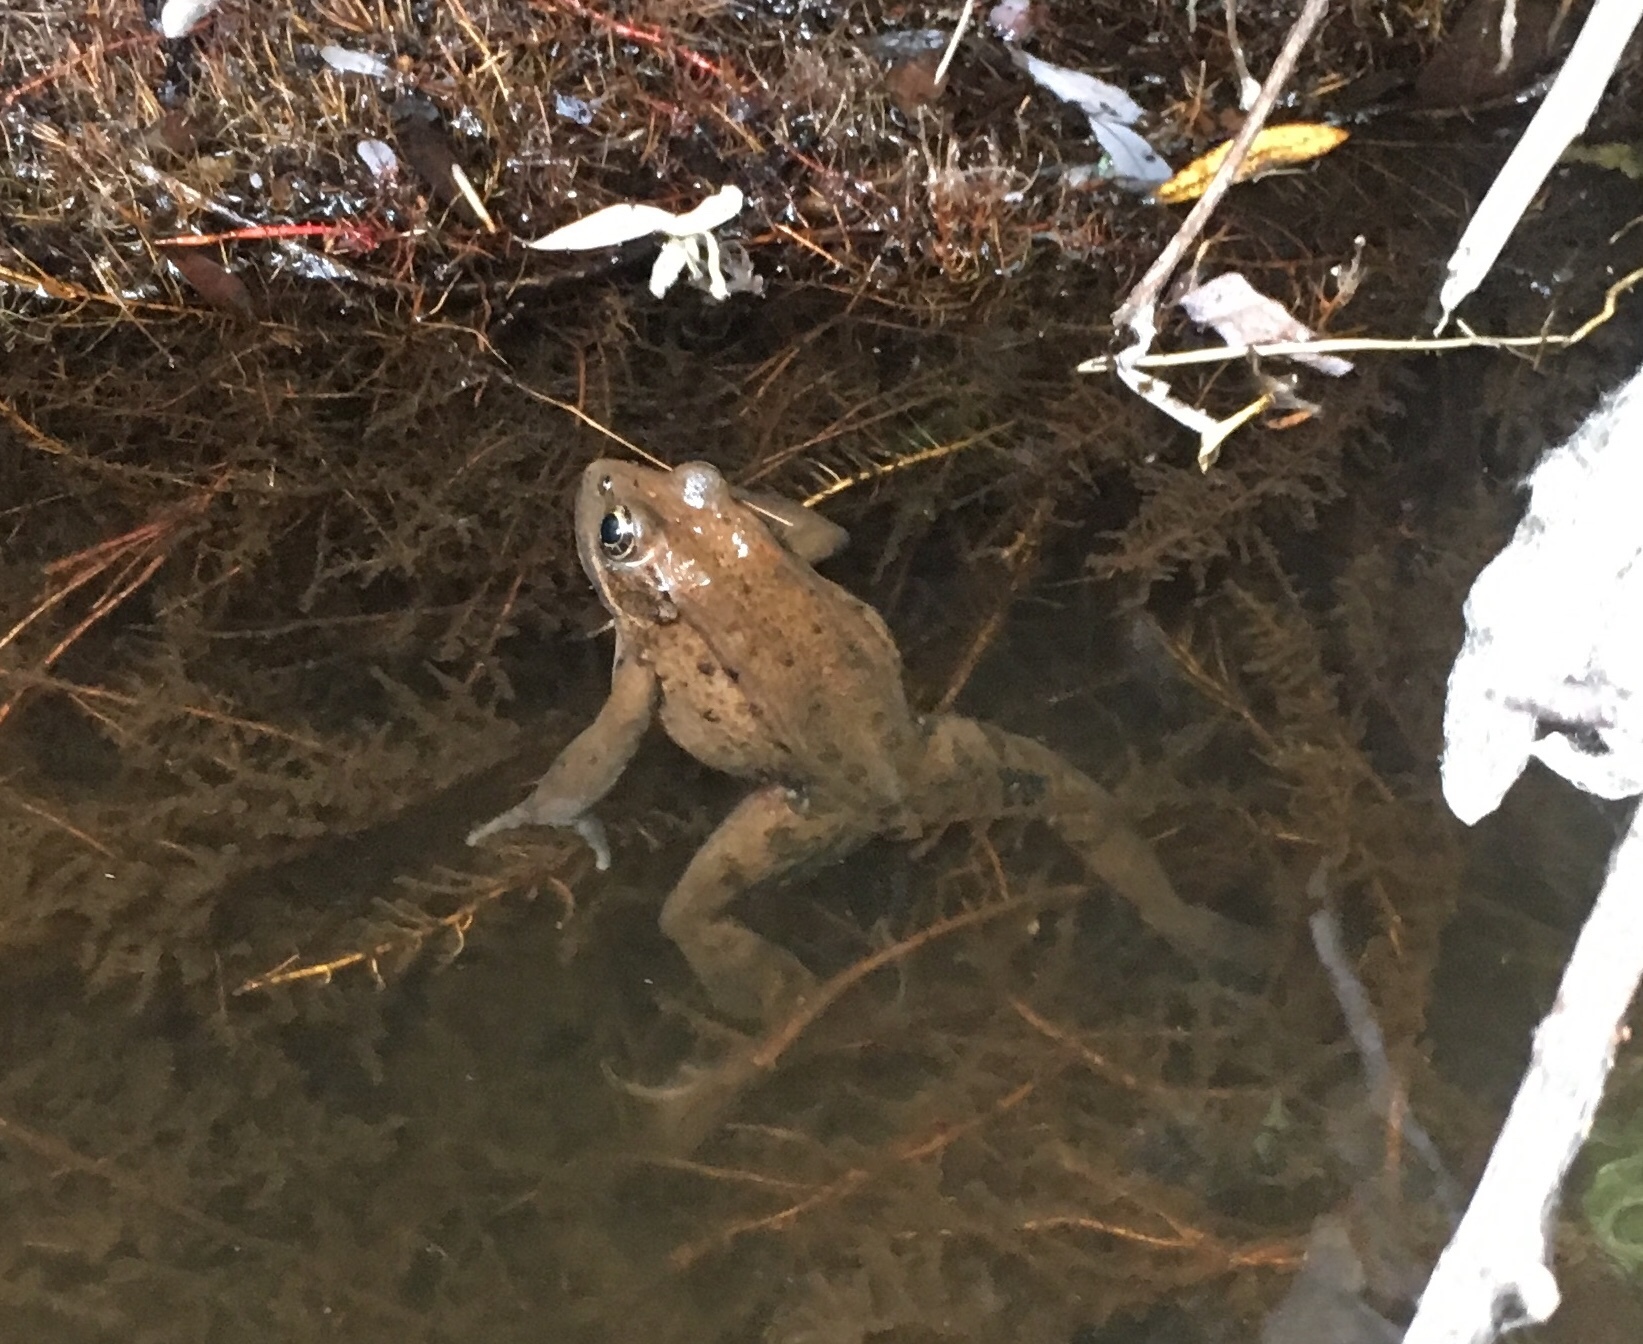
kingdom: Animalia
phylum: Chordata
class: Amphibia
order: Anura
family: Ranidae
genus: Rana
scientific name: Rana draytonii
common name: California red-legged frog
